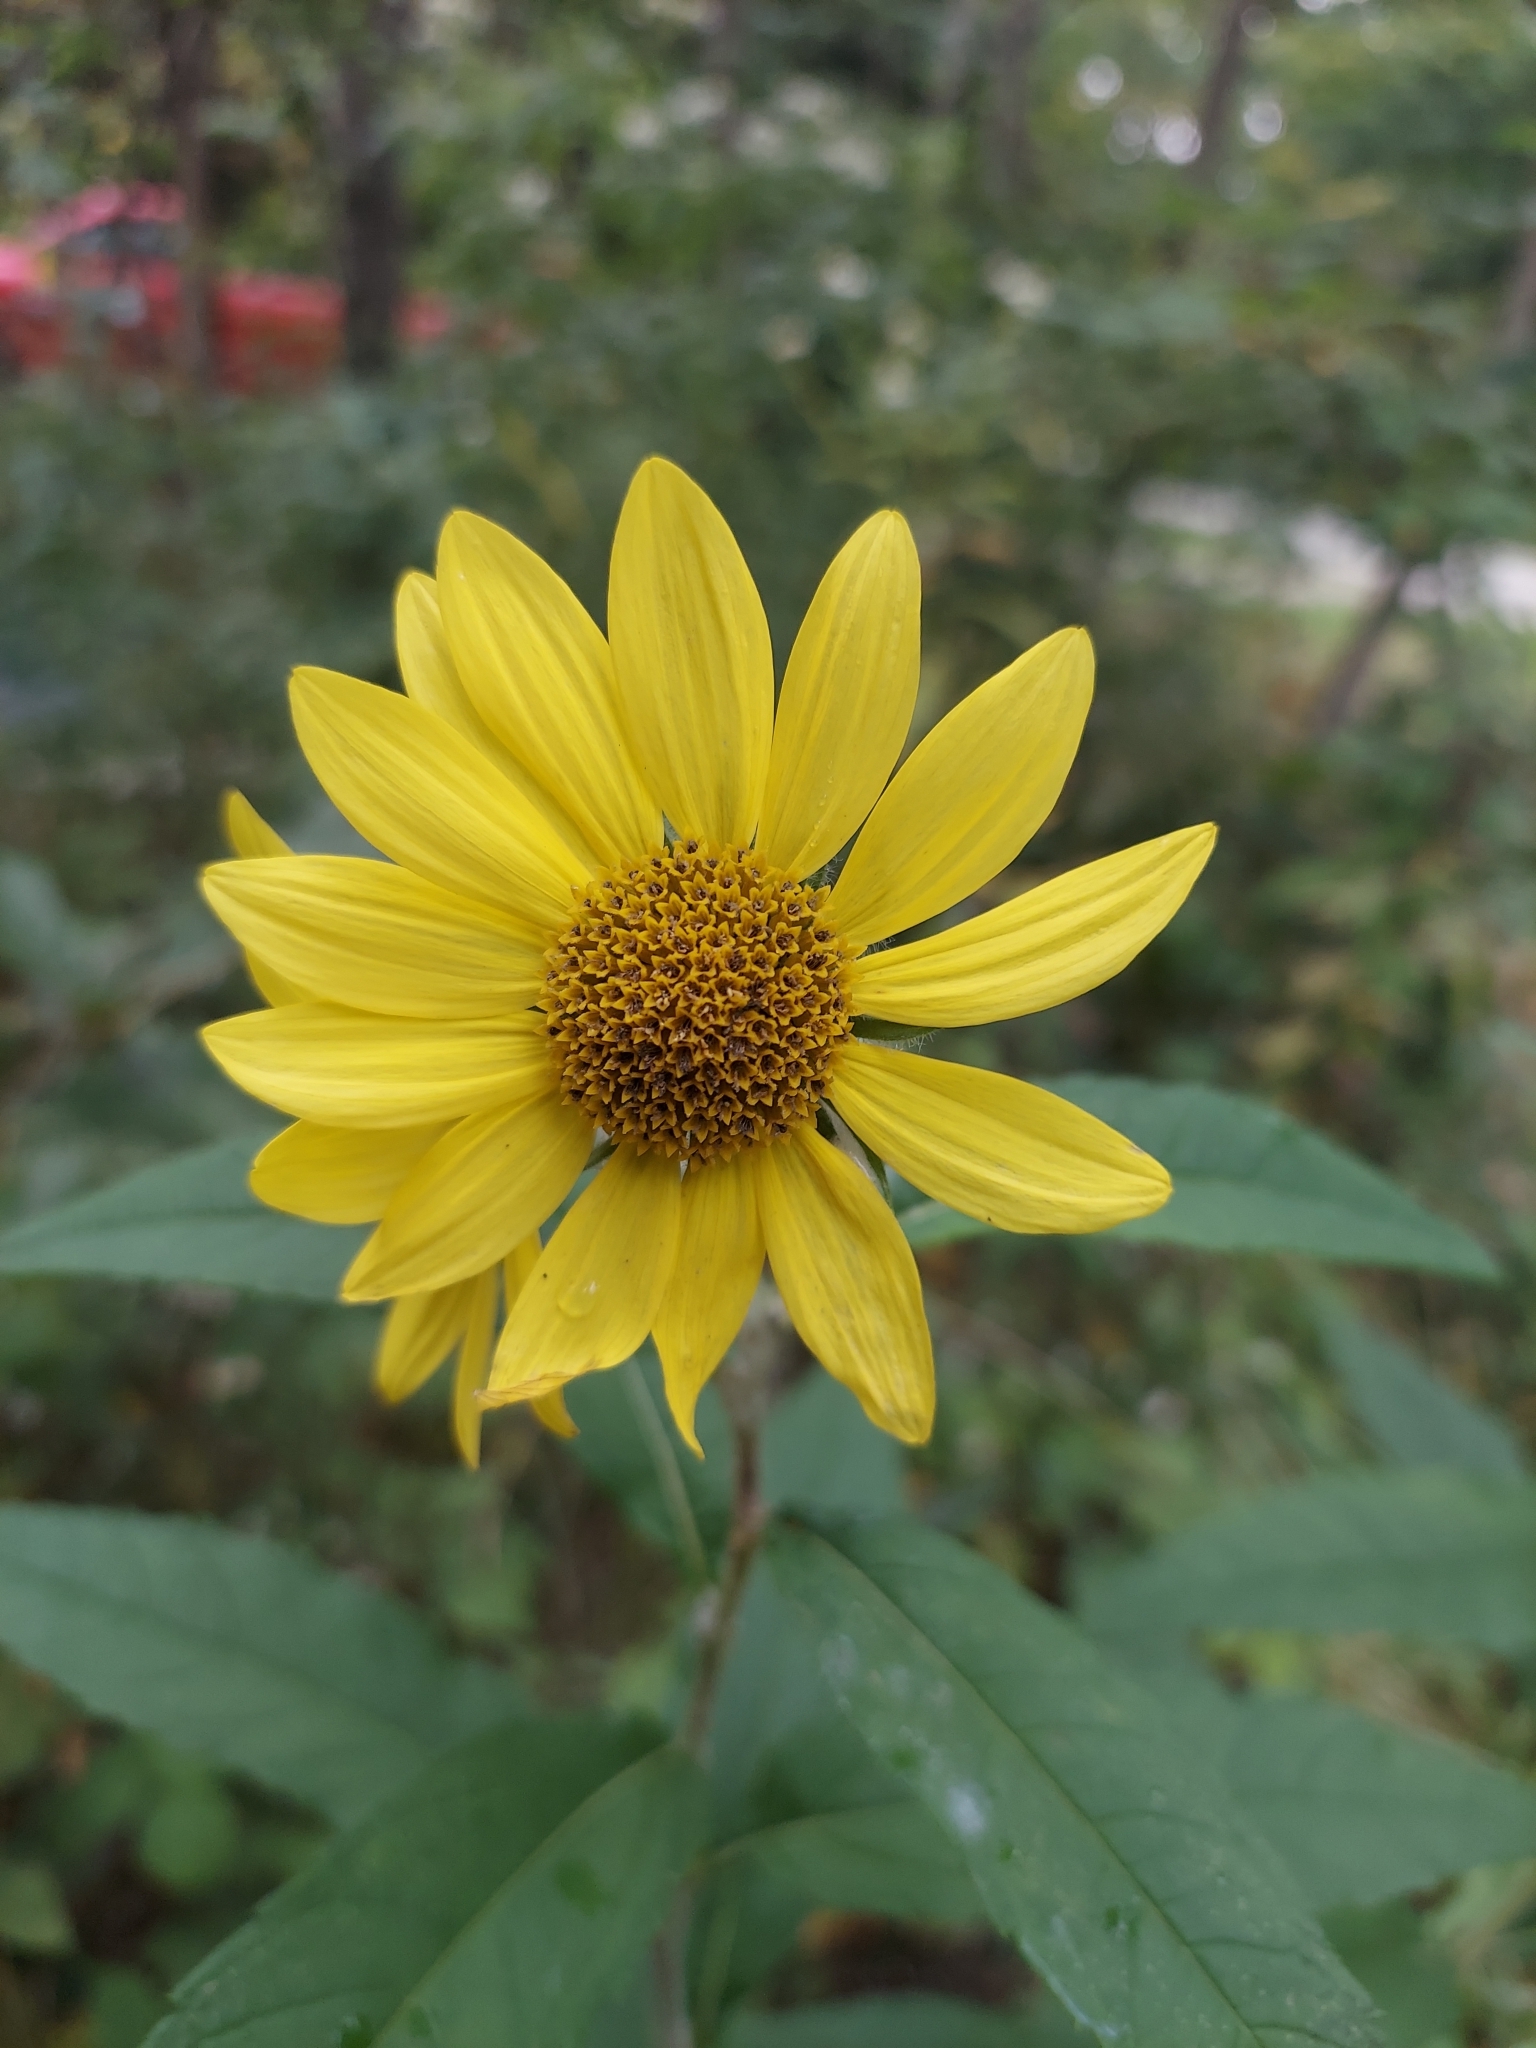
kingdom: Plantae
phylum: Tracheophyta
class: Magnoliopsida
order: Asterales
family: Asteraceae
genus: Helianthus
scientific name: Helianthus grosseserratus
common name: Sawtooth sunflower
